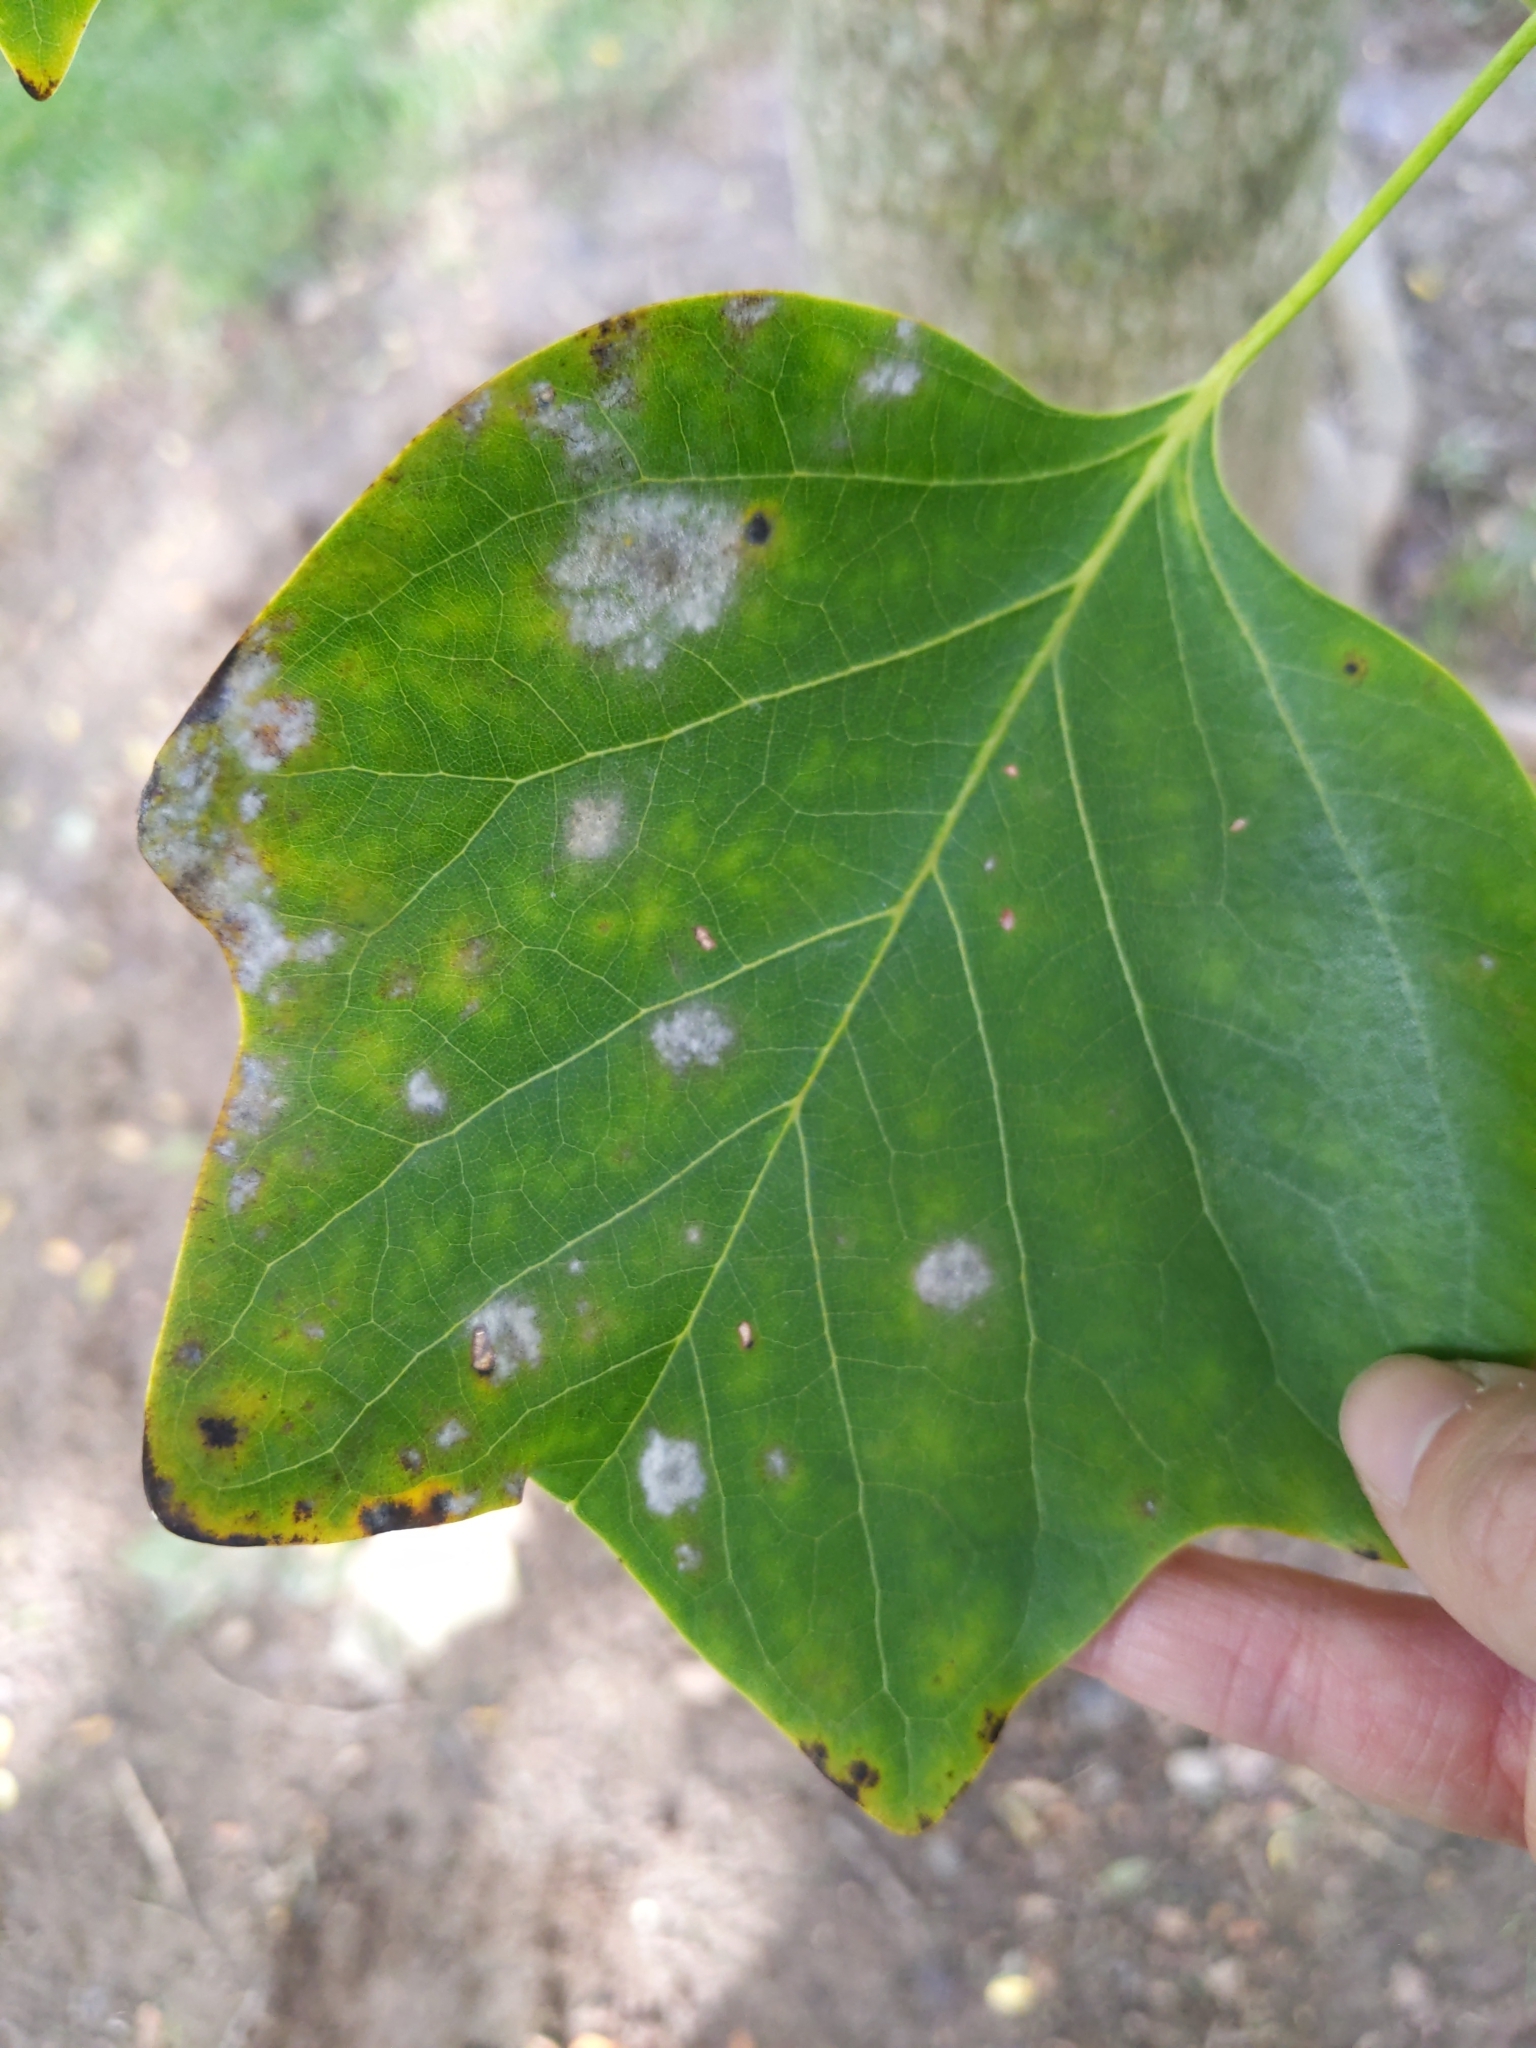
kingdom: Fungi
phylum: Ascomycota
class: Leotiomycetes
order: Helotiales
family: Erysiphaceae
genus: Erysiphe
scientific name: Erysiphe liriodendri
